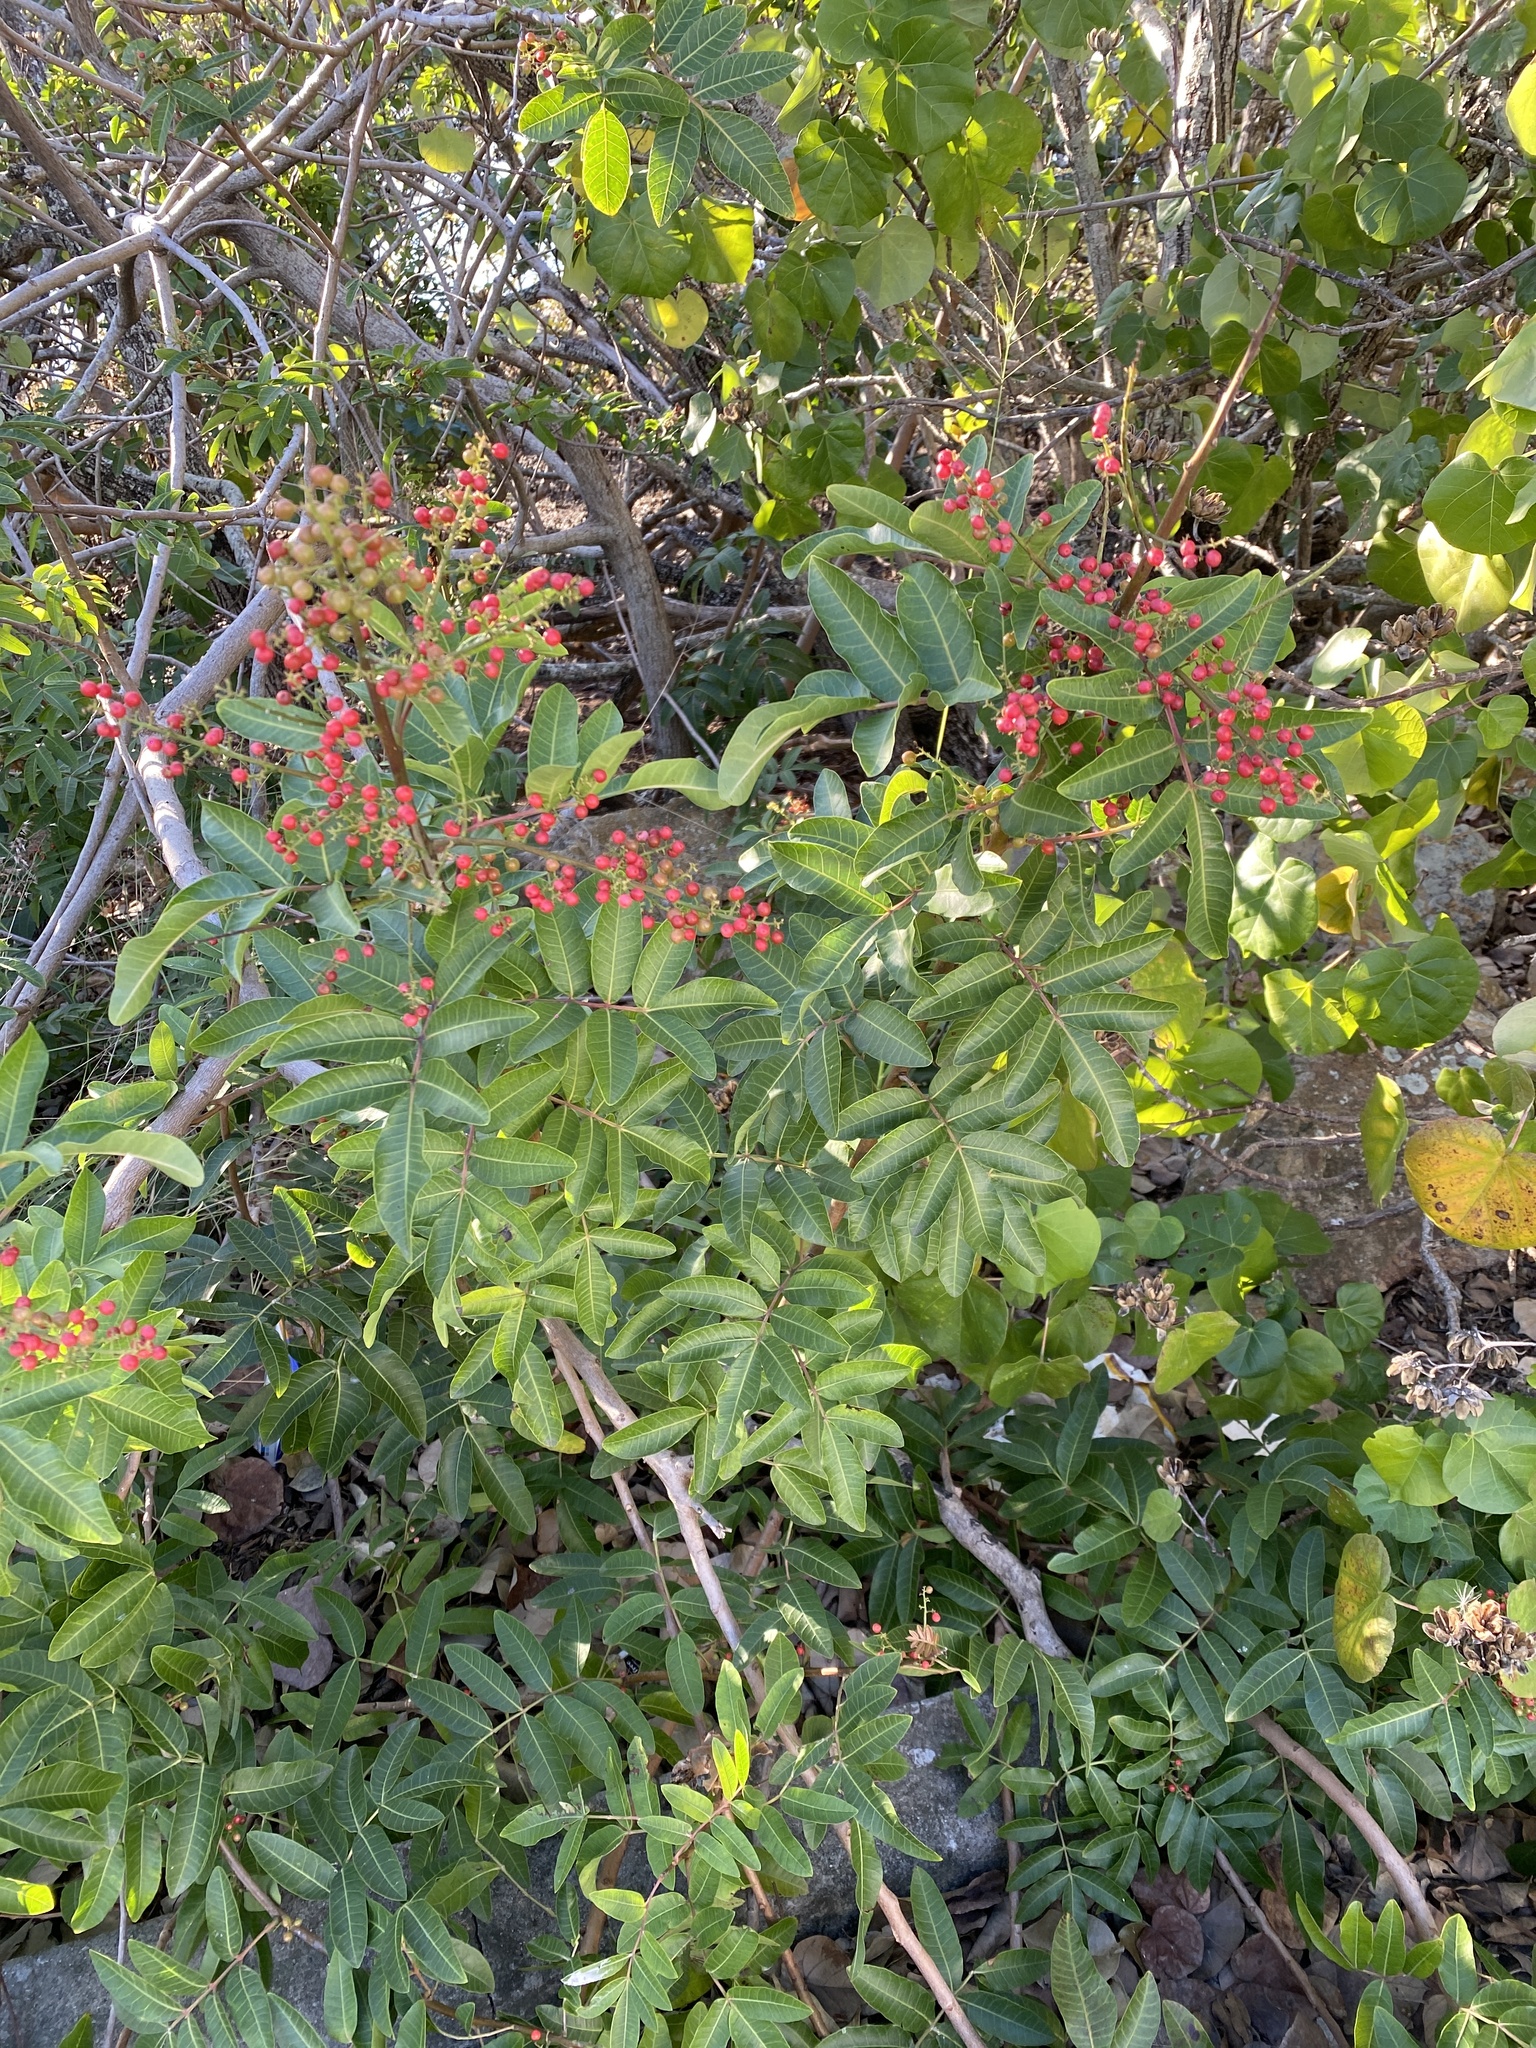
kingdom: Plantae
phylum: Tracheophyta
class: Magnoliopsida
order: Sapindales
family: Anacardiaceae
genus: Schinus
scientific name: Schinus terebinthifolia
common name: Brazilian peppertree
